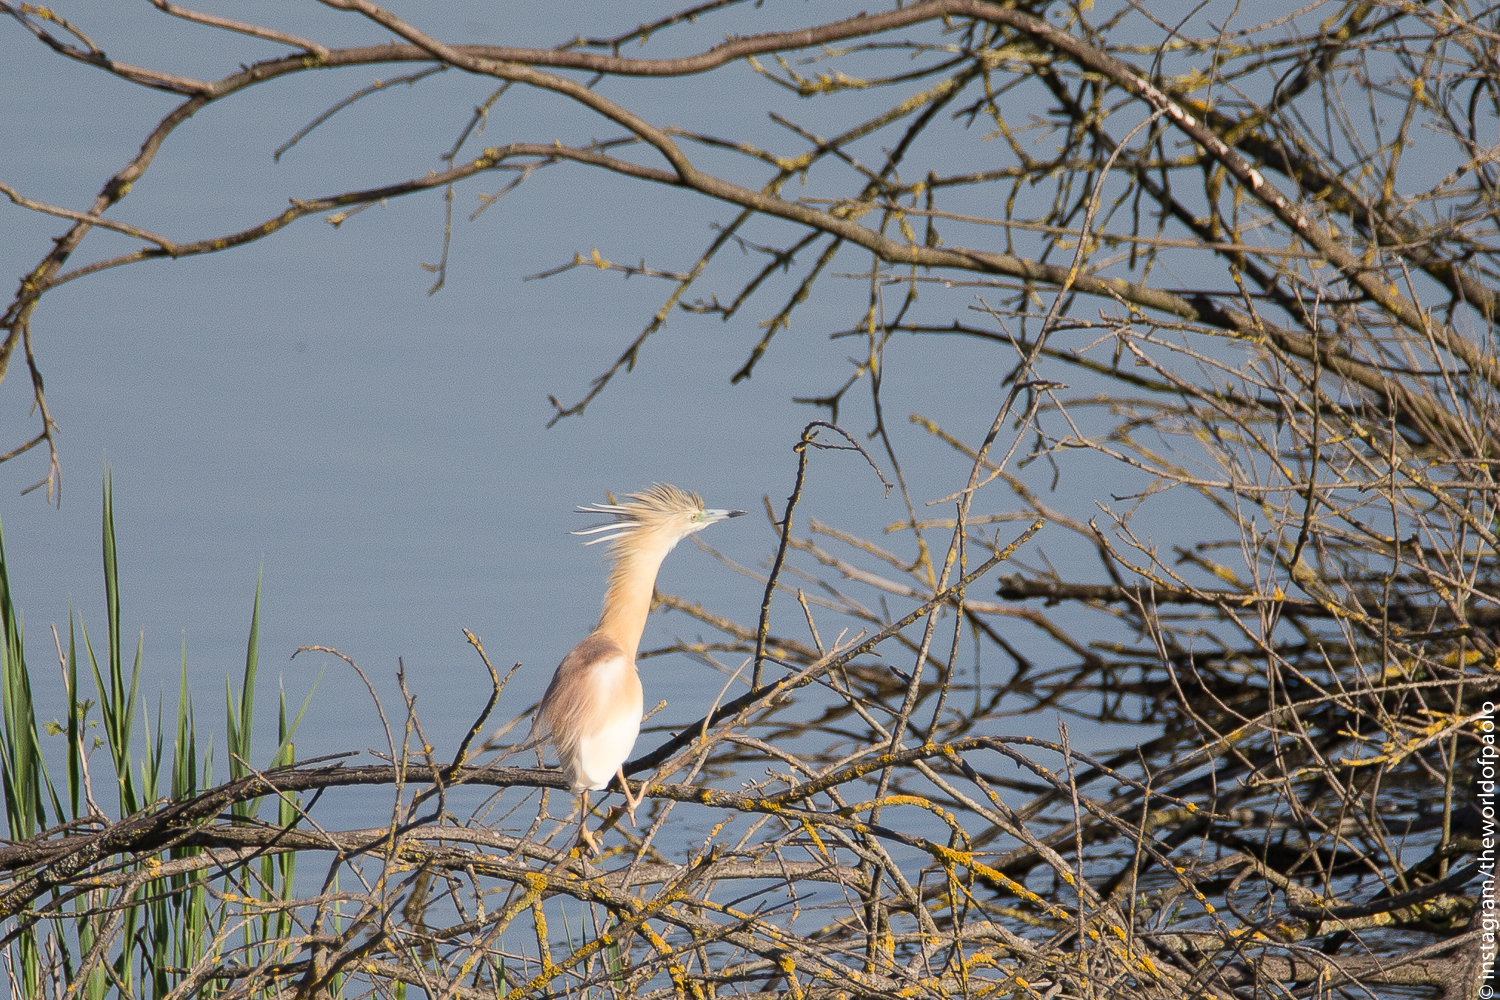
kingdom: Animalia
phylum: Chordata
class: Aves
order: Pelecaniformes
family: Ardeidae
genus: Ardeola
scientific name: Ardeola ralloides
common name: Squacco heron
